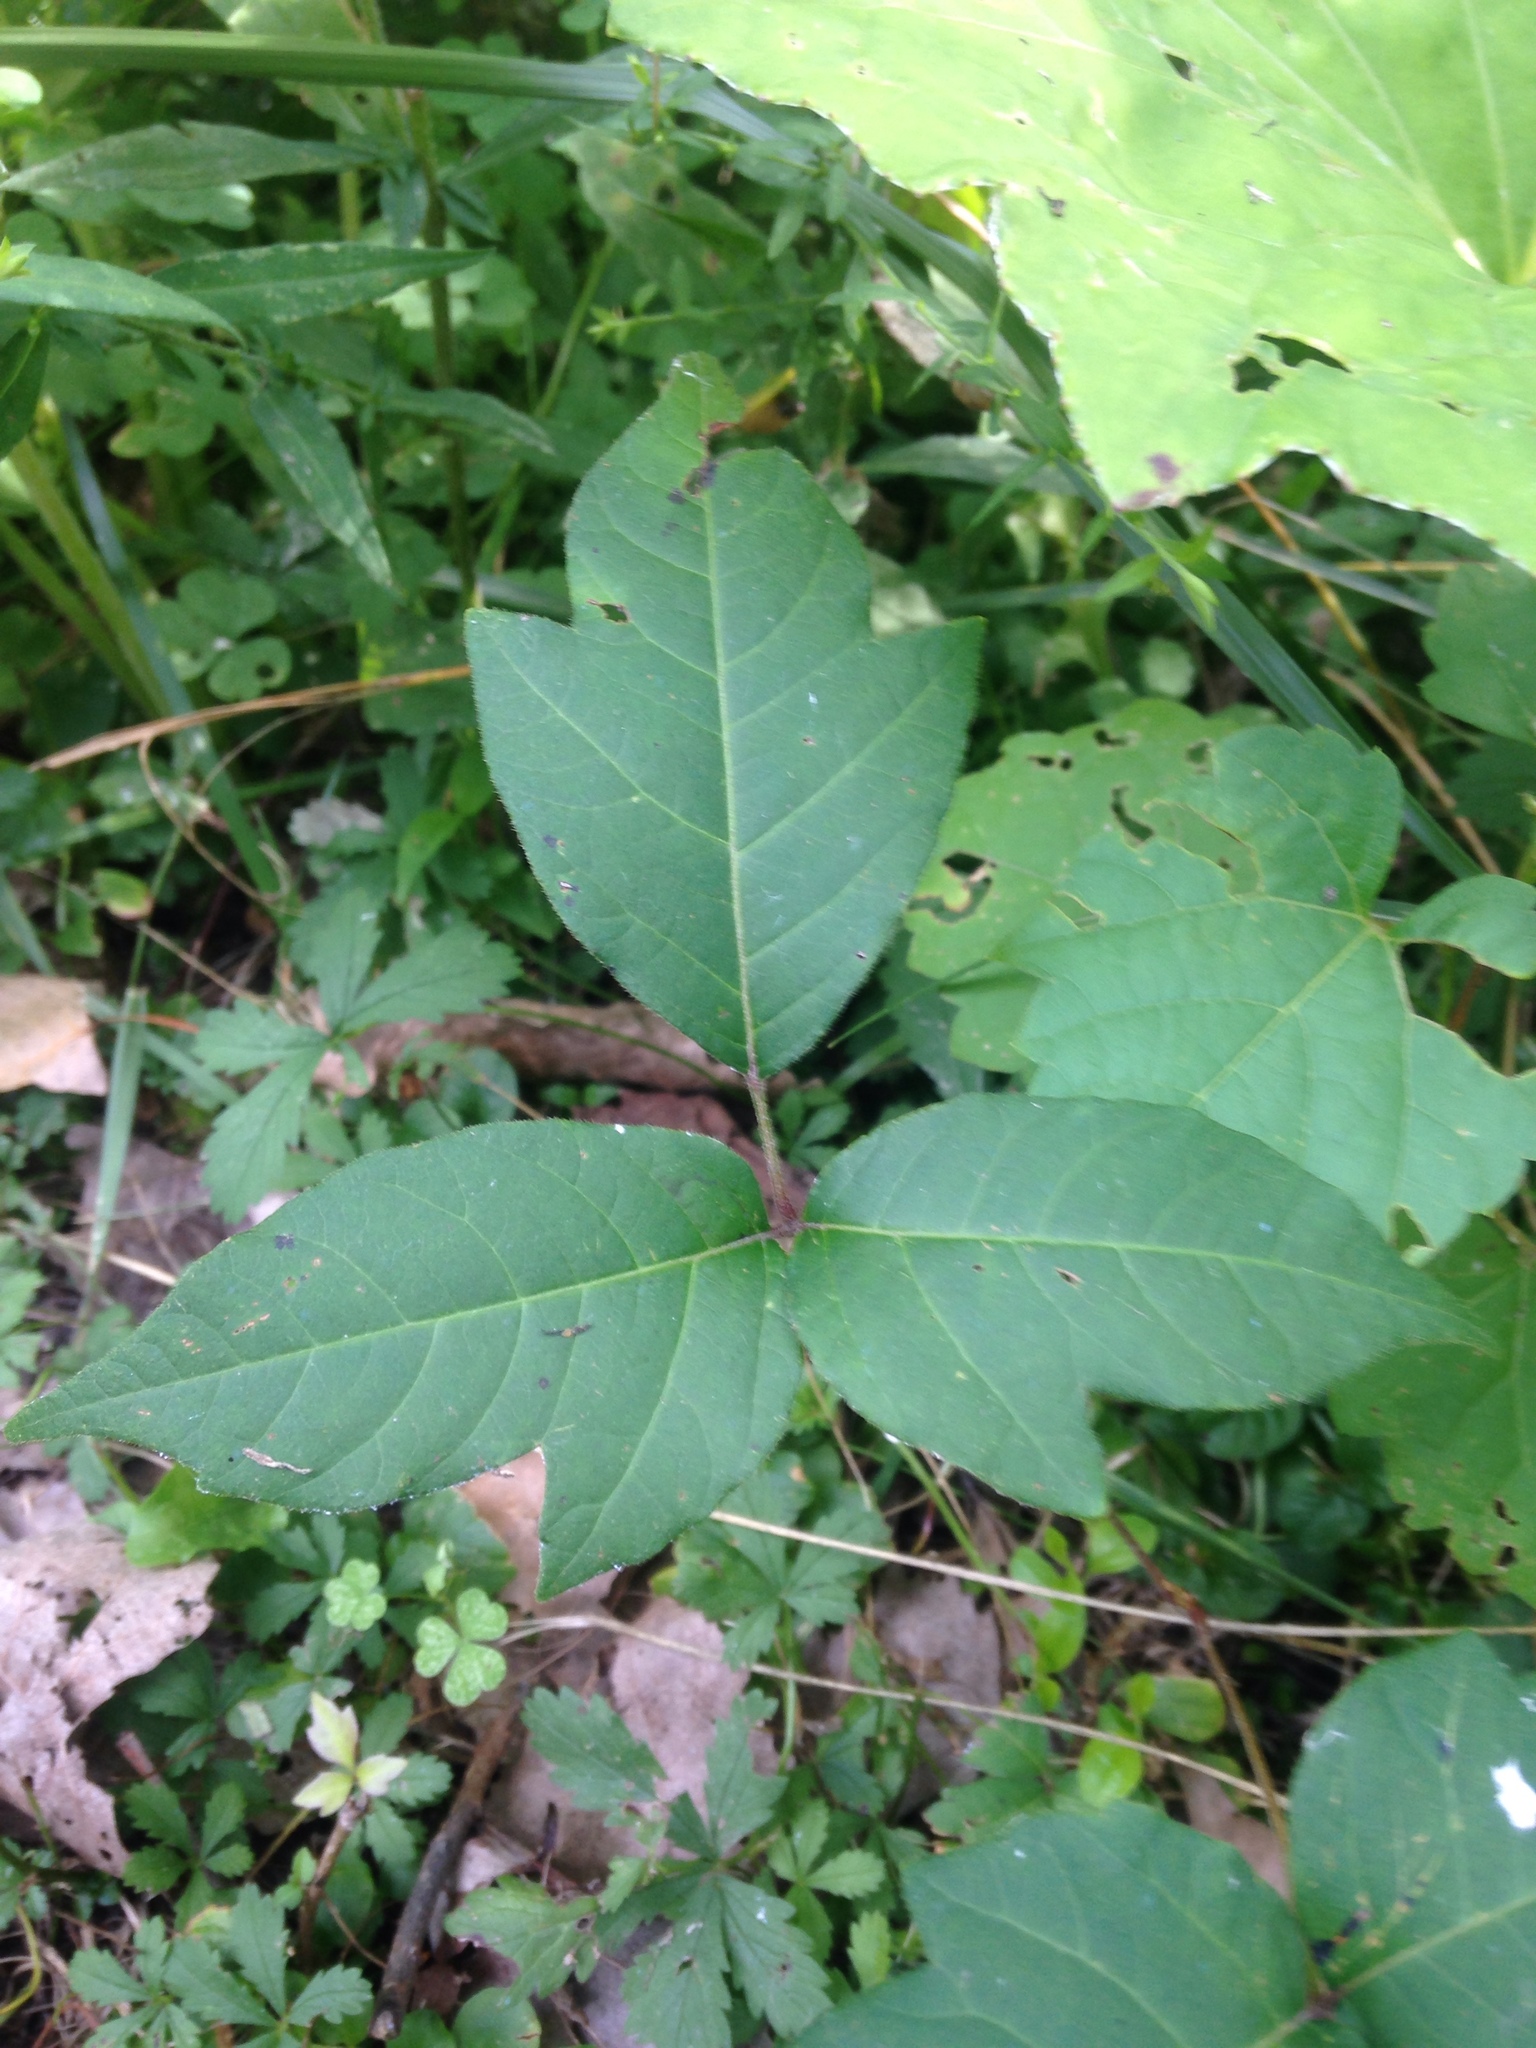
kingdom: Plantae
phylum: Tracheophyta
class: Magnoliopsida
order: Sapindales
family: Anacardiaceae
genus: Toxicodendron
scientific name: Toxicodendron radicans
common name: Poison ivy
